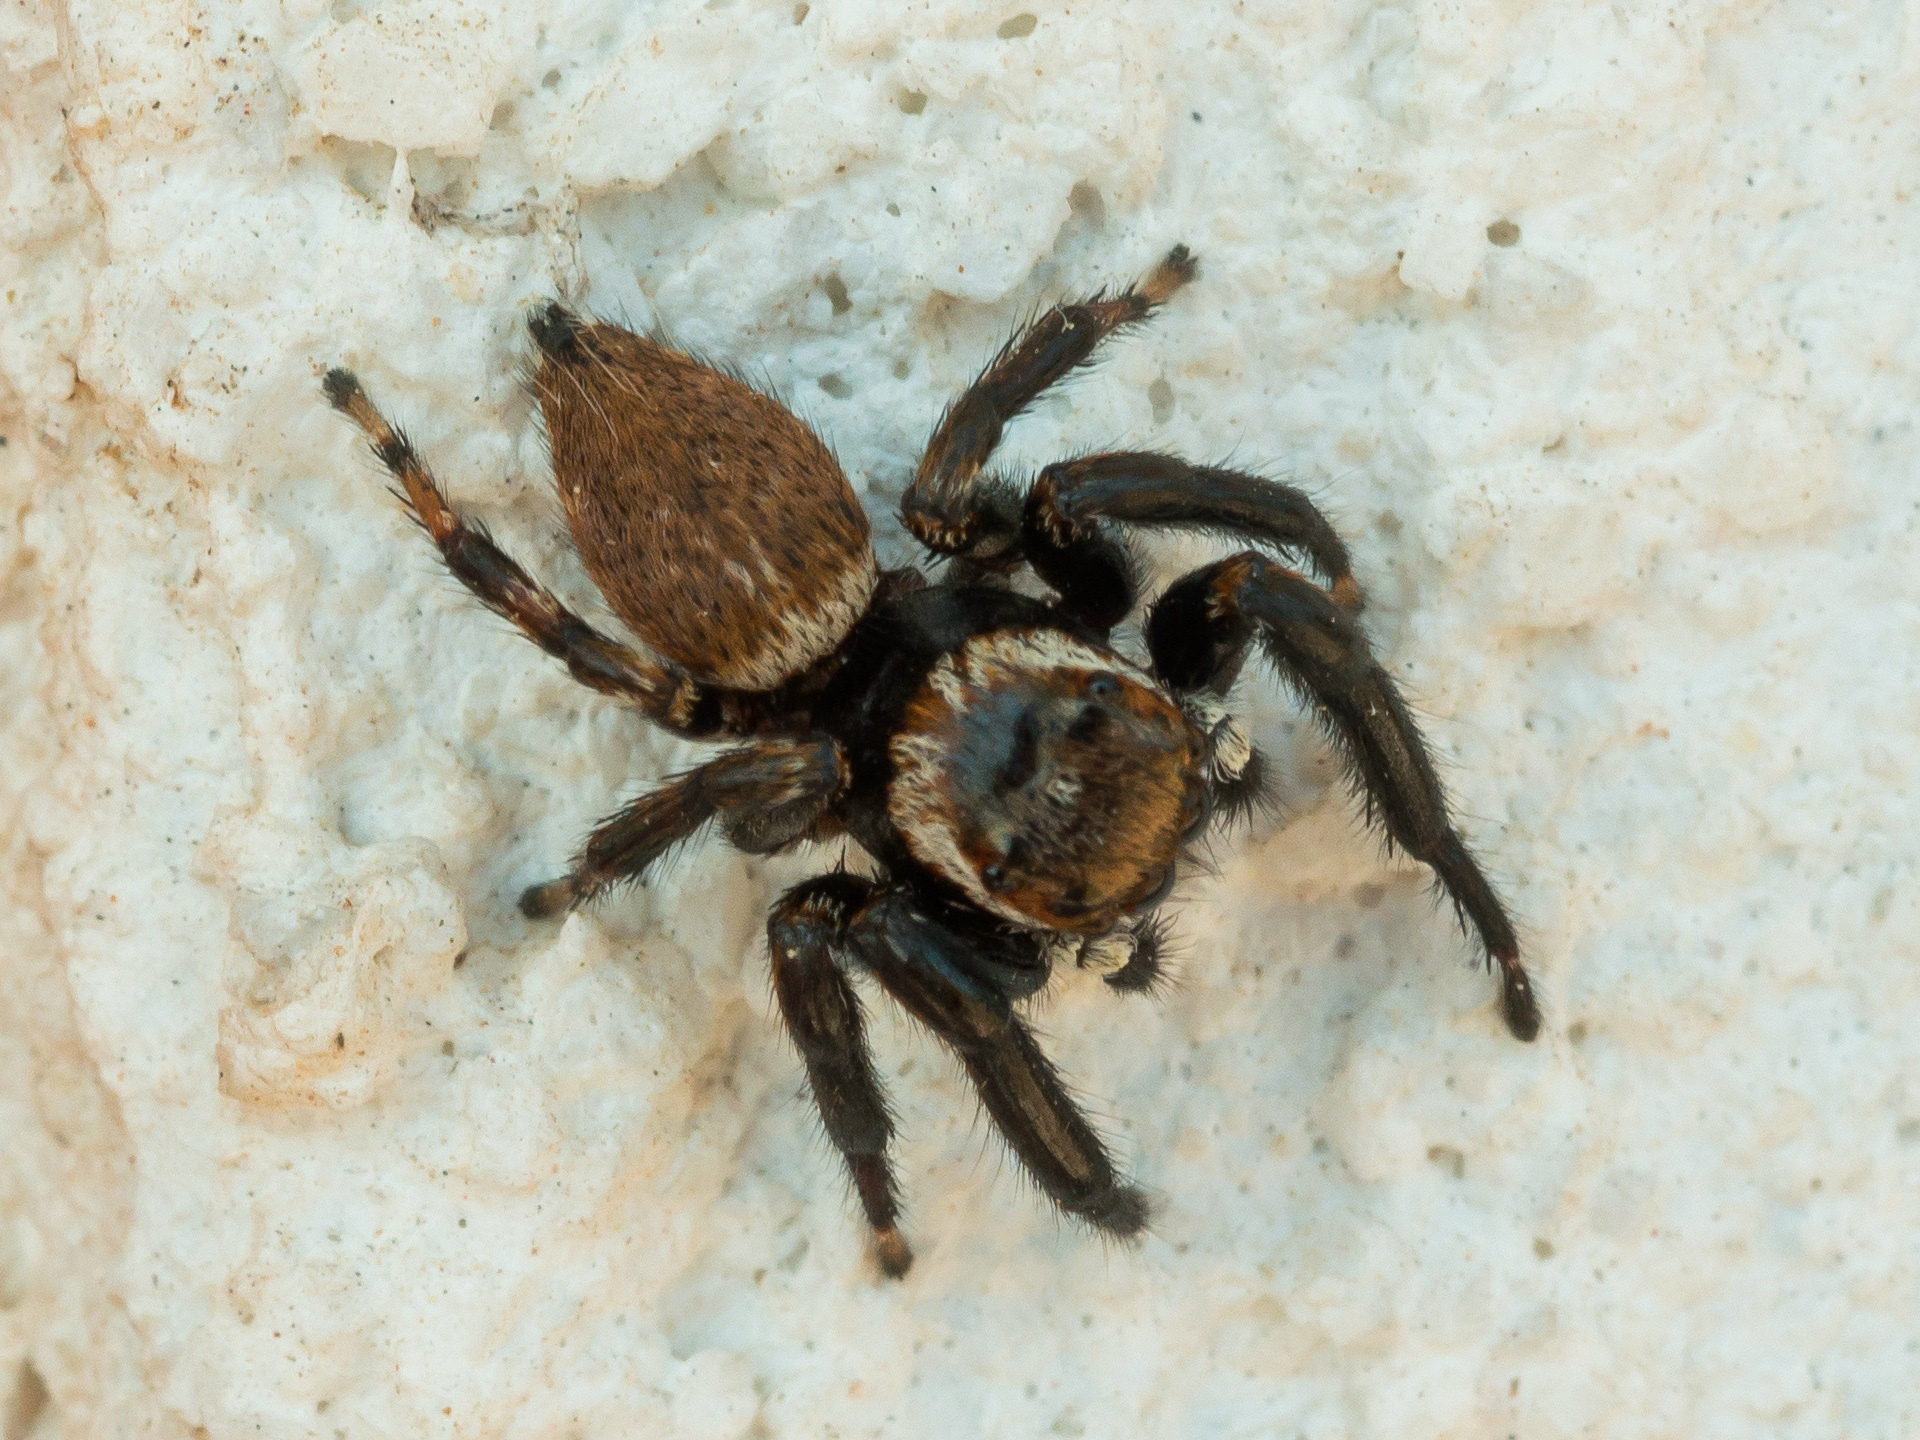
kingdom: Animalia
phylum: Arthropoda
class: Arachnida
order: Araneae
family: Salticidae
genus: Evarcha
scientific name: Evarcha jucunda
